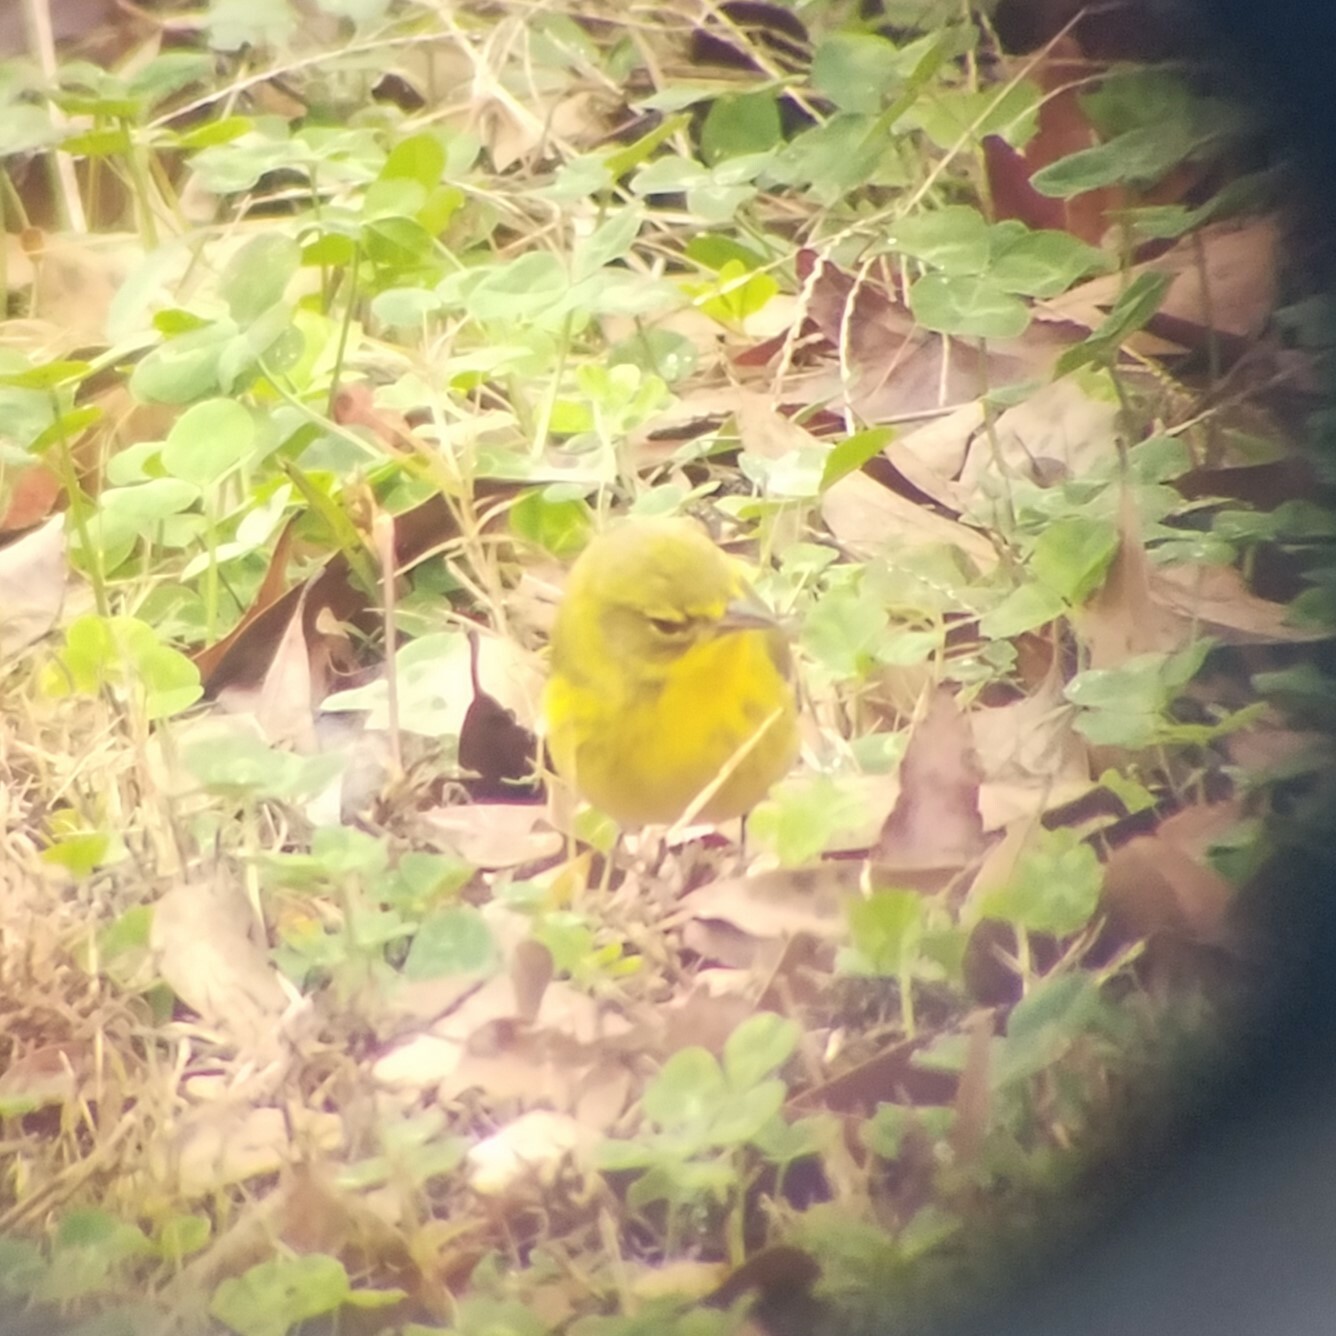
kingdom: Animalia
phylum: Chordata
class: Aves
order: Passeriformes
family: Parulidae
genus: Setophaga
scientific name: Setophaga pinus
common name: Pine warbler
